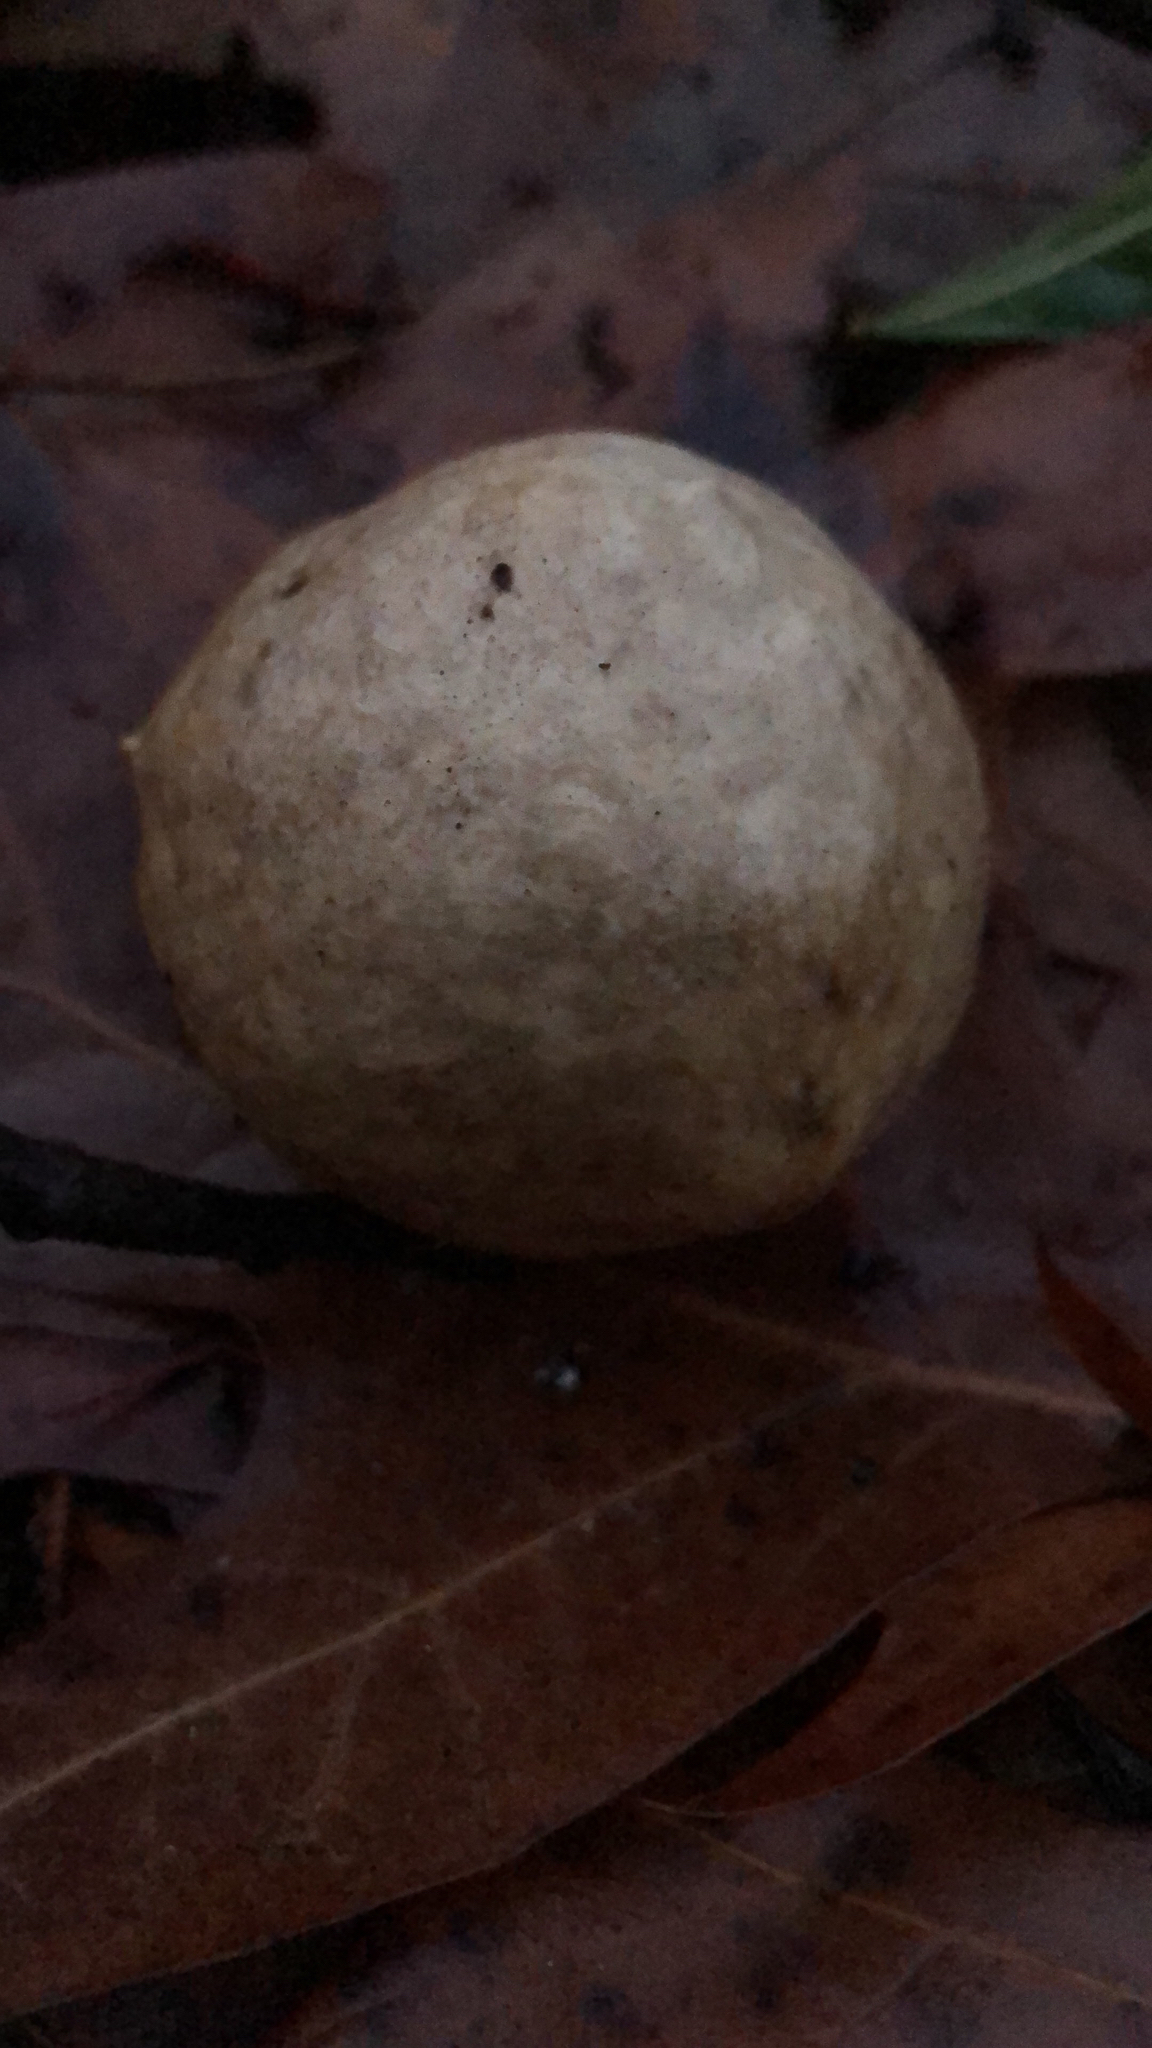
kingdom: Animalia
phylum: Arthropoda
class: Insecta
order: Hymenoptera
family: Cynipidae
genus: Amphibolips
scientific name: Amphibolips
